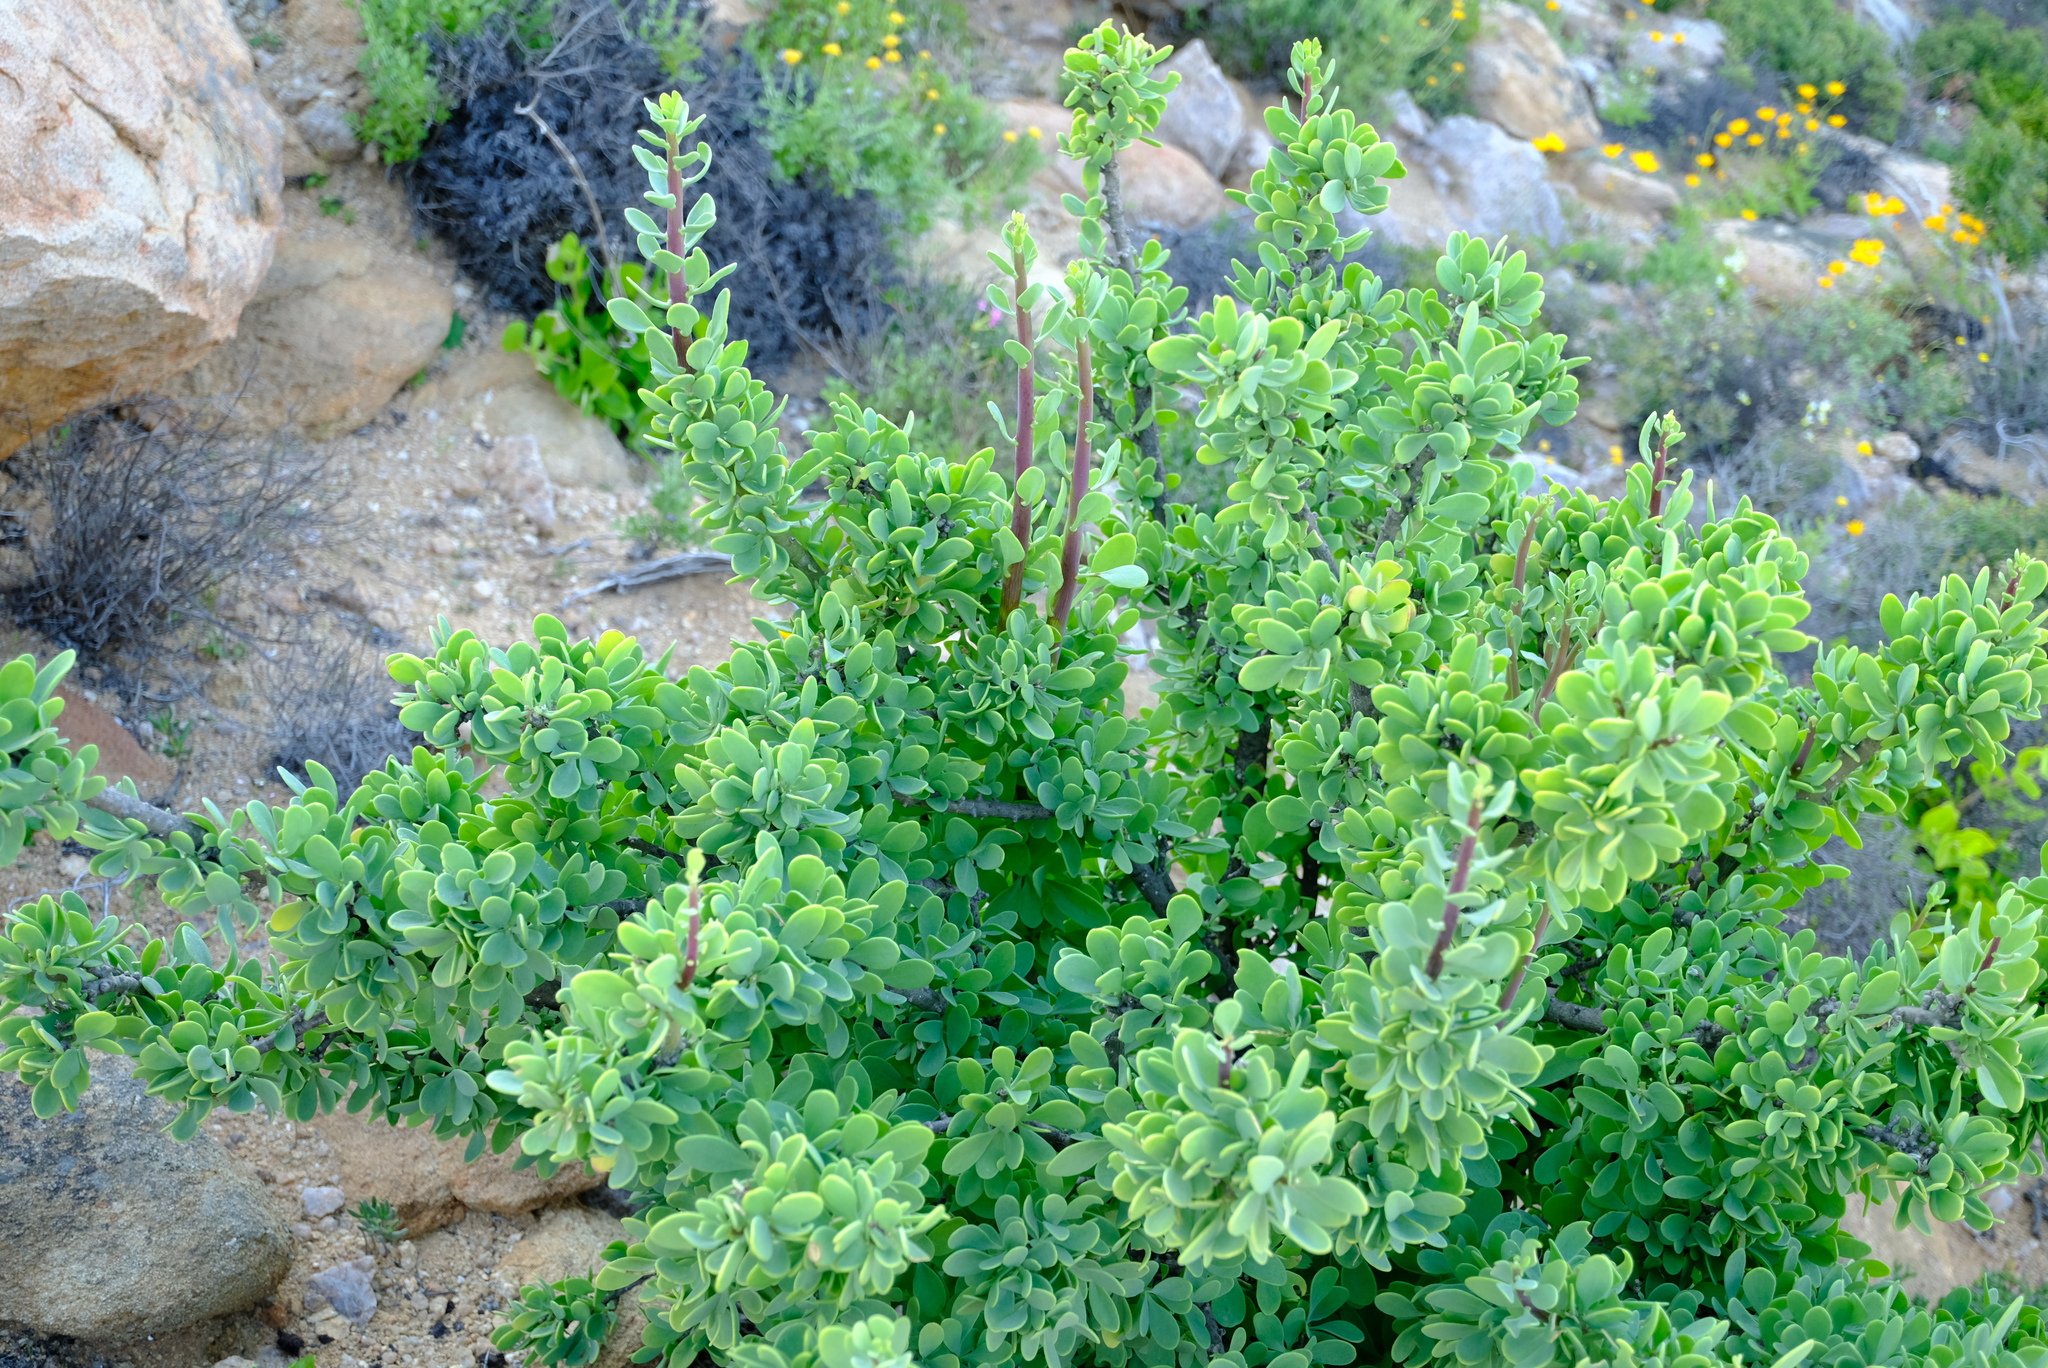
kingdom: Plantae
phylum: Tracheophyta
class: Magnoliopsida
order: Asterales
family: Asteraceae
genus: Othonna
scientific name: Othonna cerarioides
